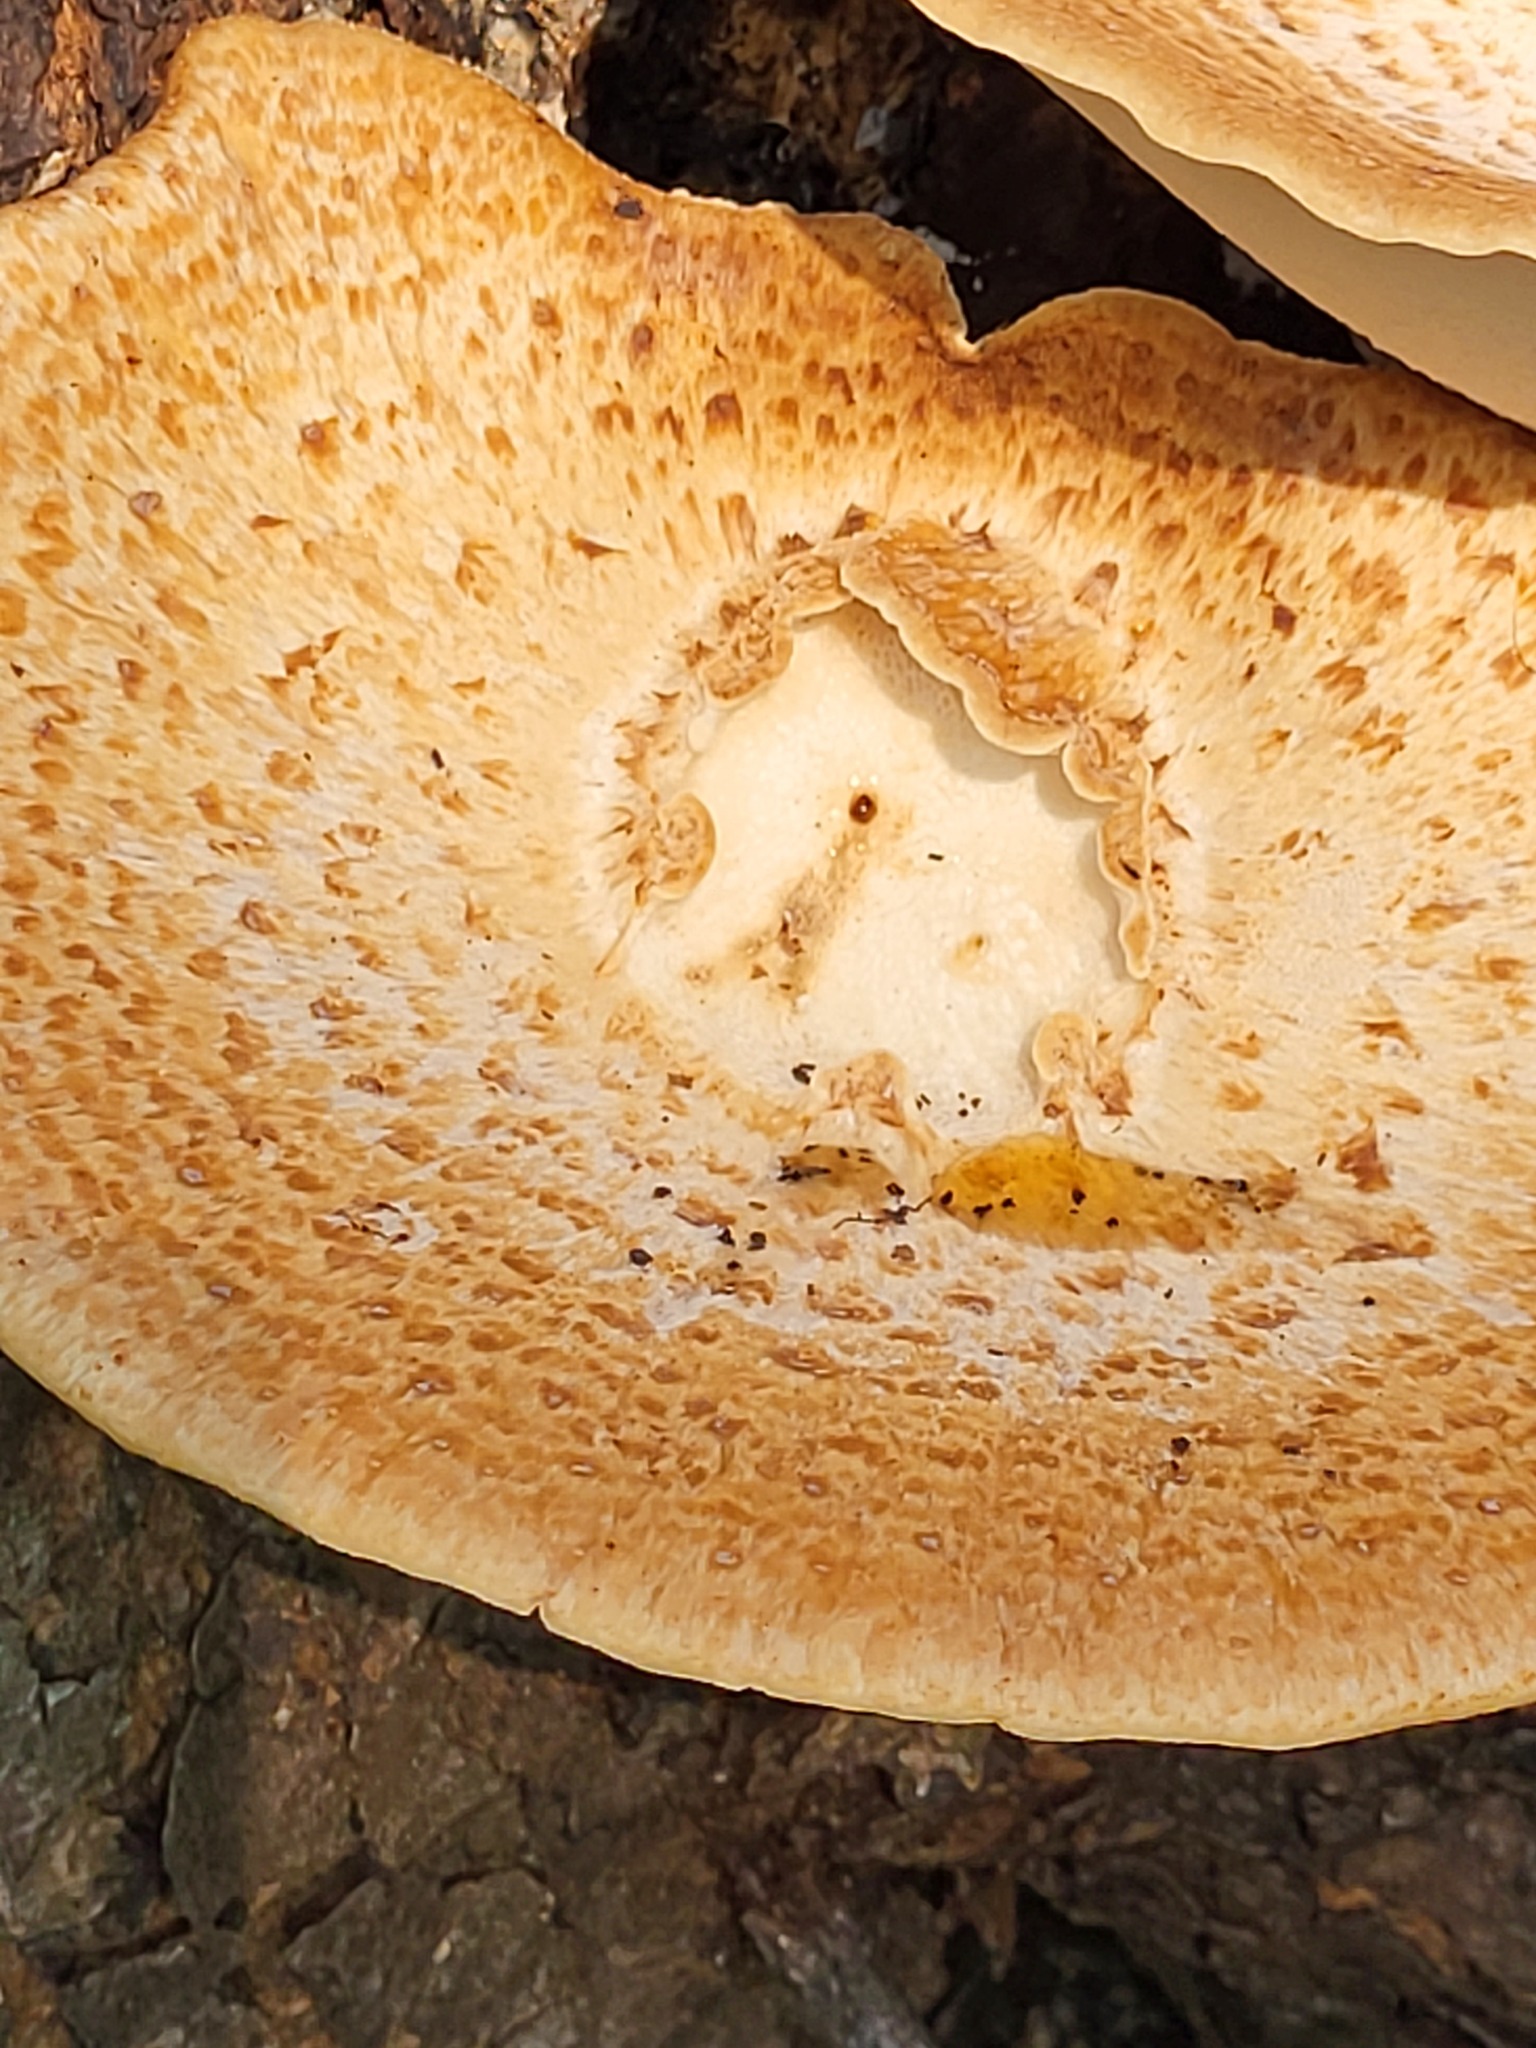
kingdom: Fungi
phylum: Basidiomycota
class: Agaricomycetes
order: Polyporales
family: Polyporaceae
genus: Cerioporus
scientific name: Cerioporus squamosus
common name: Dryad's saddle
